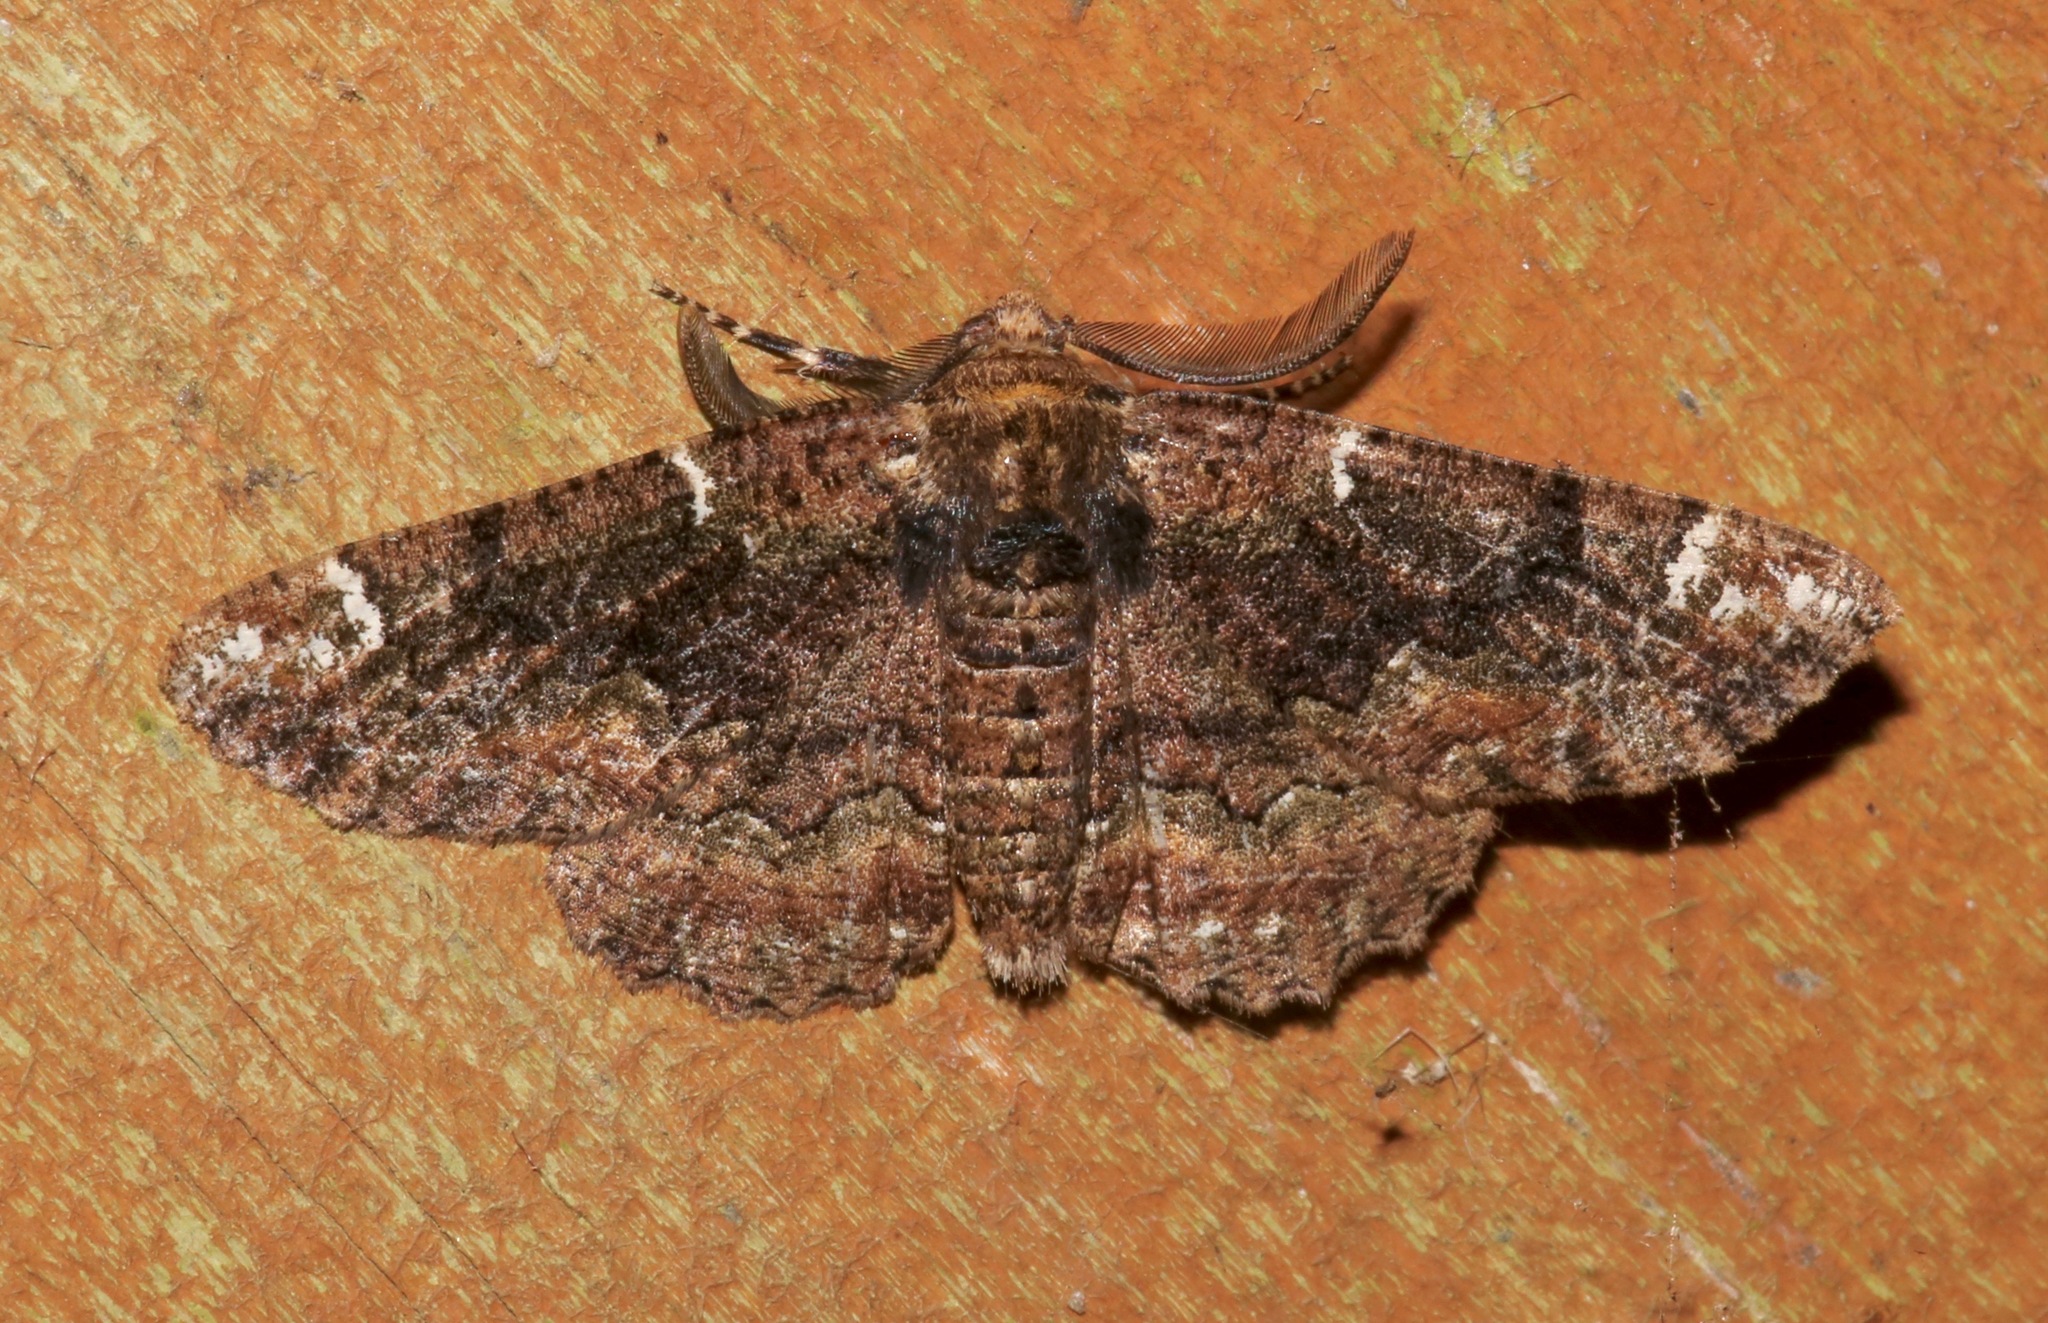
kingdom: Animalia
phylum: Arthropoda
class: Insecta
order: Lepidoptera
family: Geometridae
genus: Phaeoura
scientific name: Phaeoura quernaria
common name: Oak beauty
